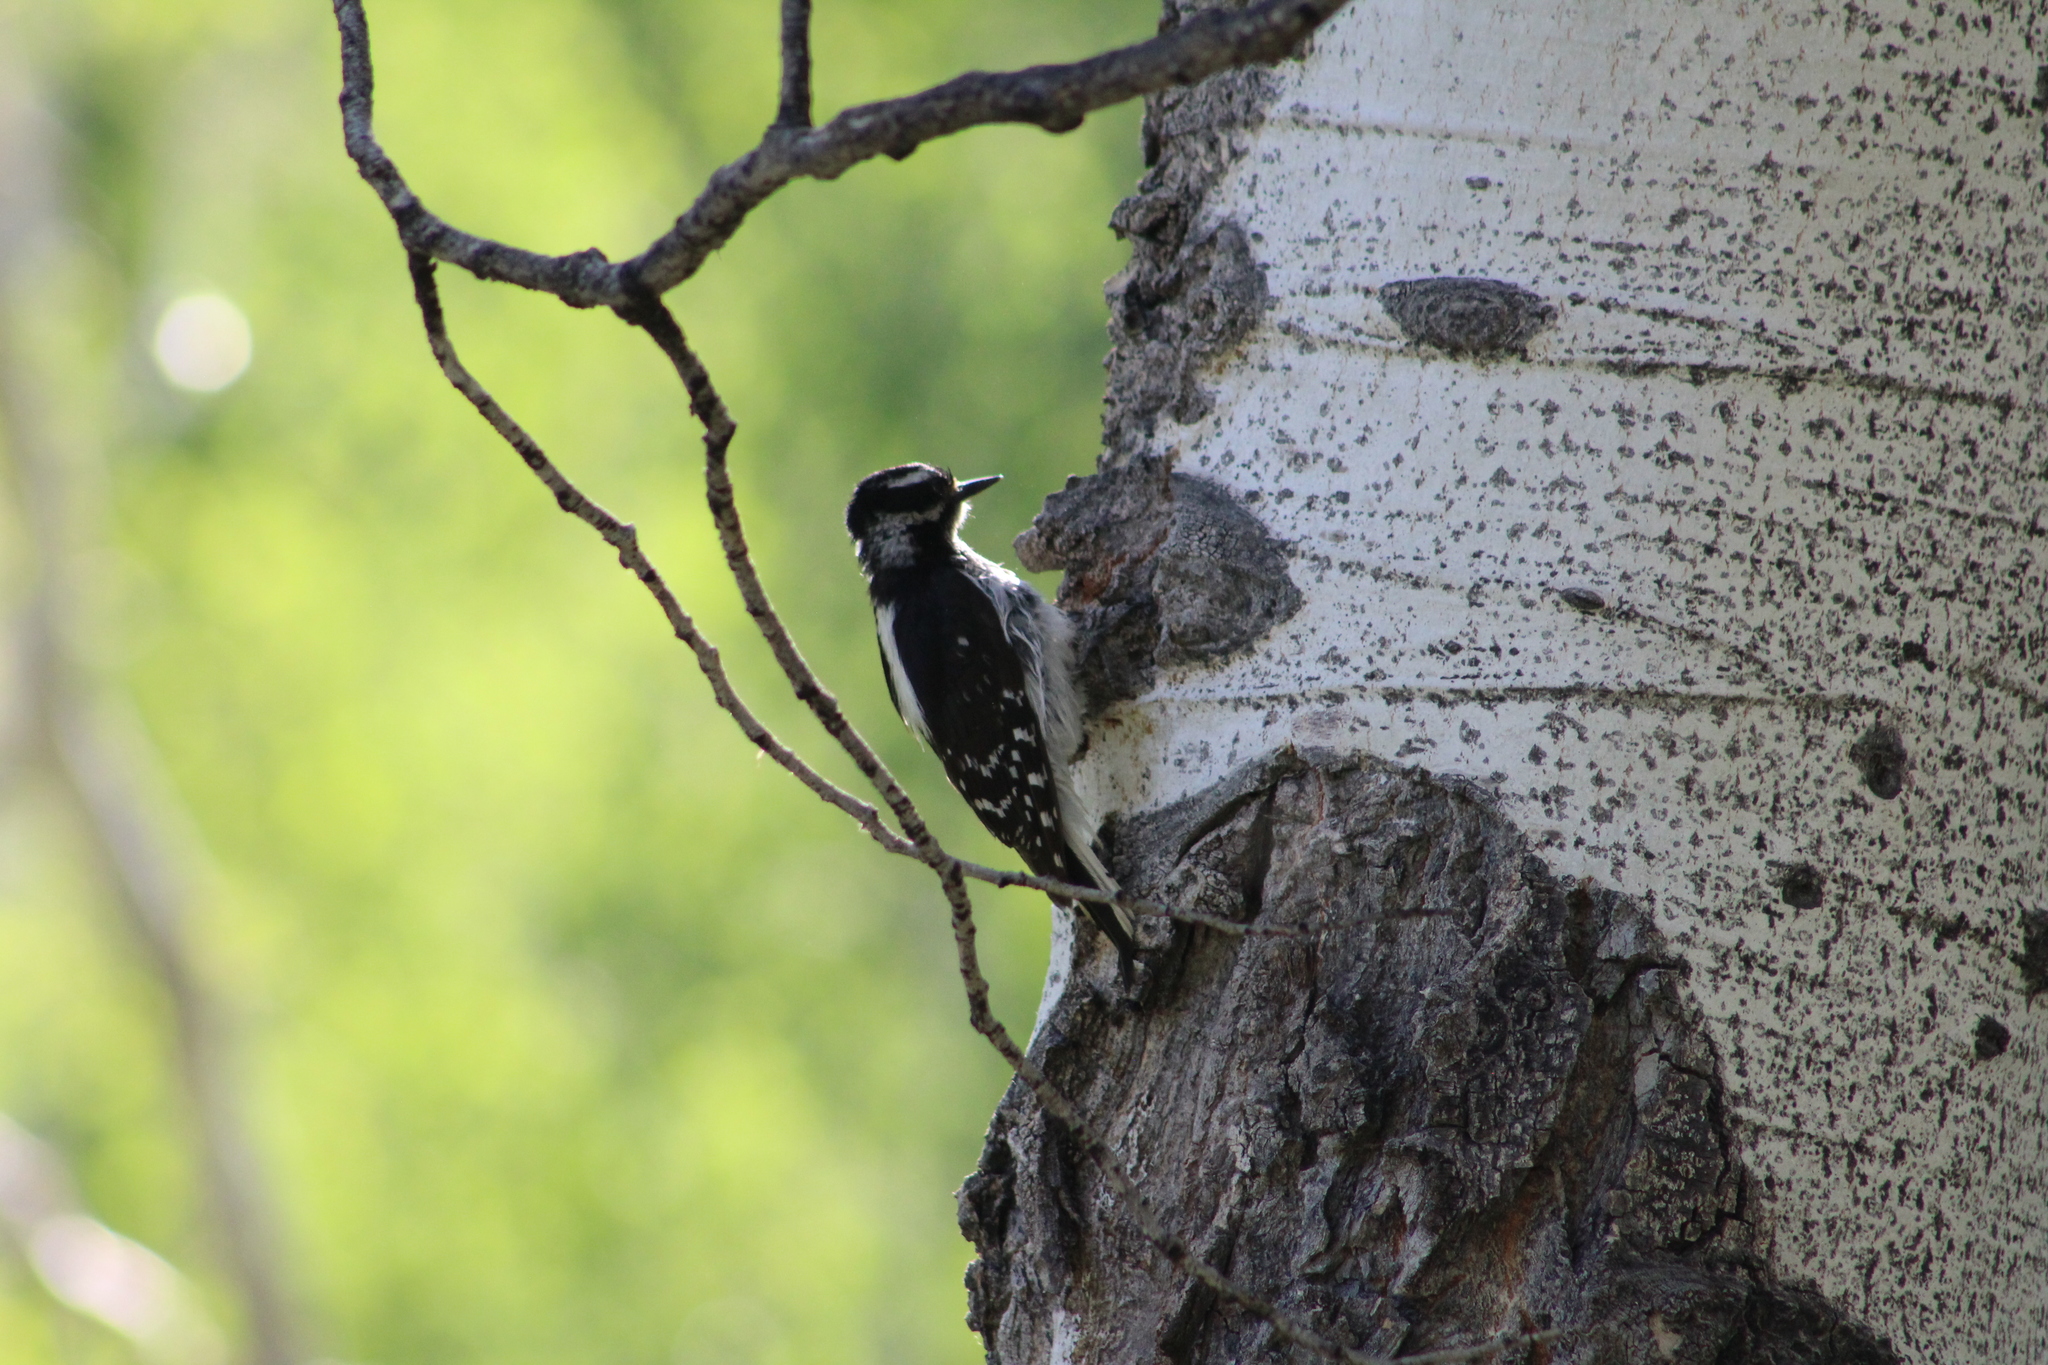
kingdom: Animalia
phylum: Chordata
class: Aves
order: Piciformes
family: Picidae
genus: Dryobates
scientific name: Dryobates pubescens
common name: Downy woodpecker
